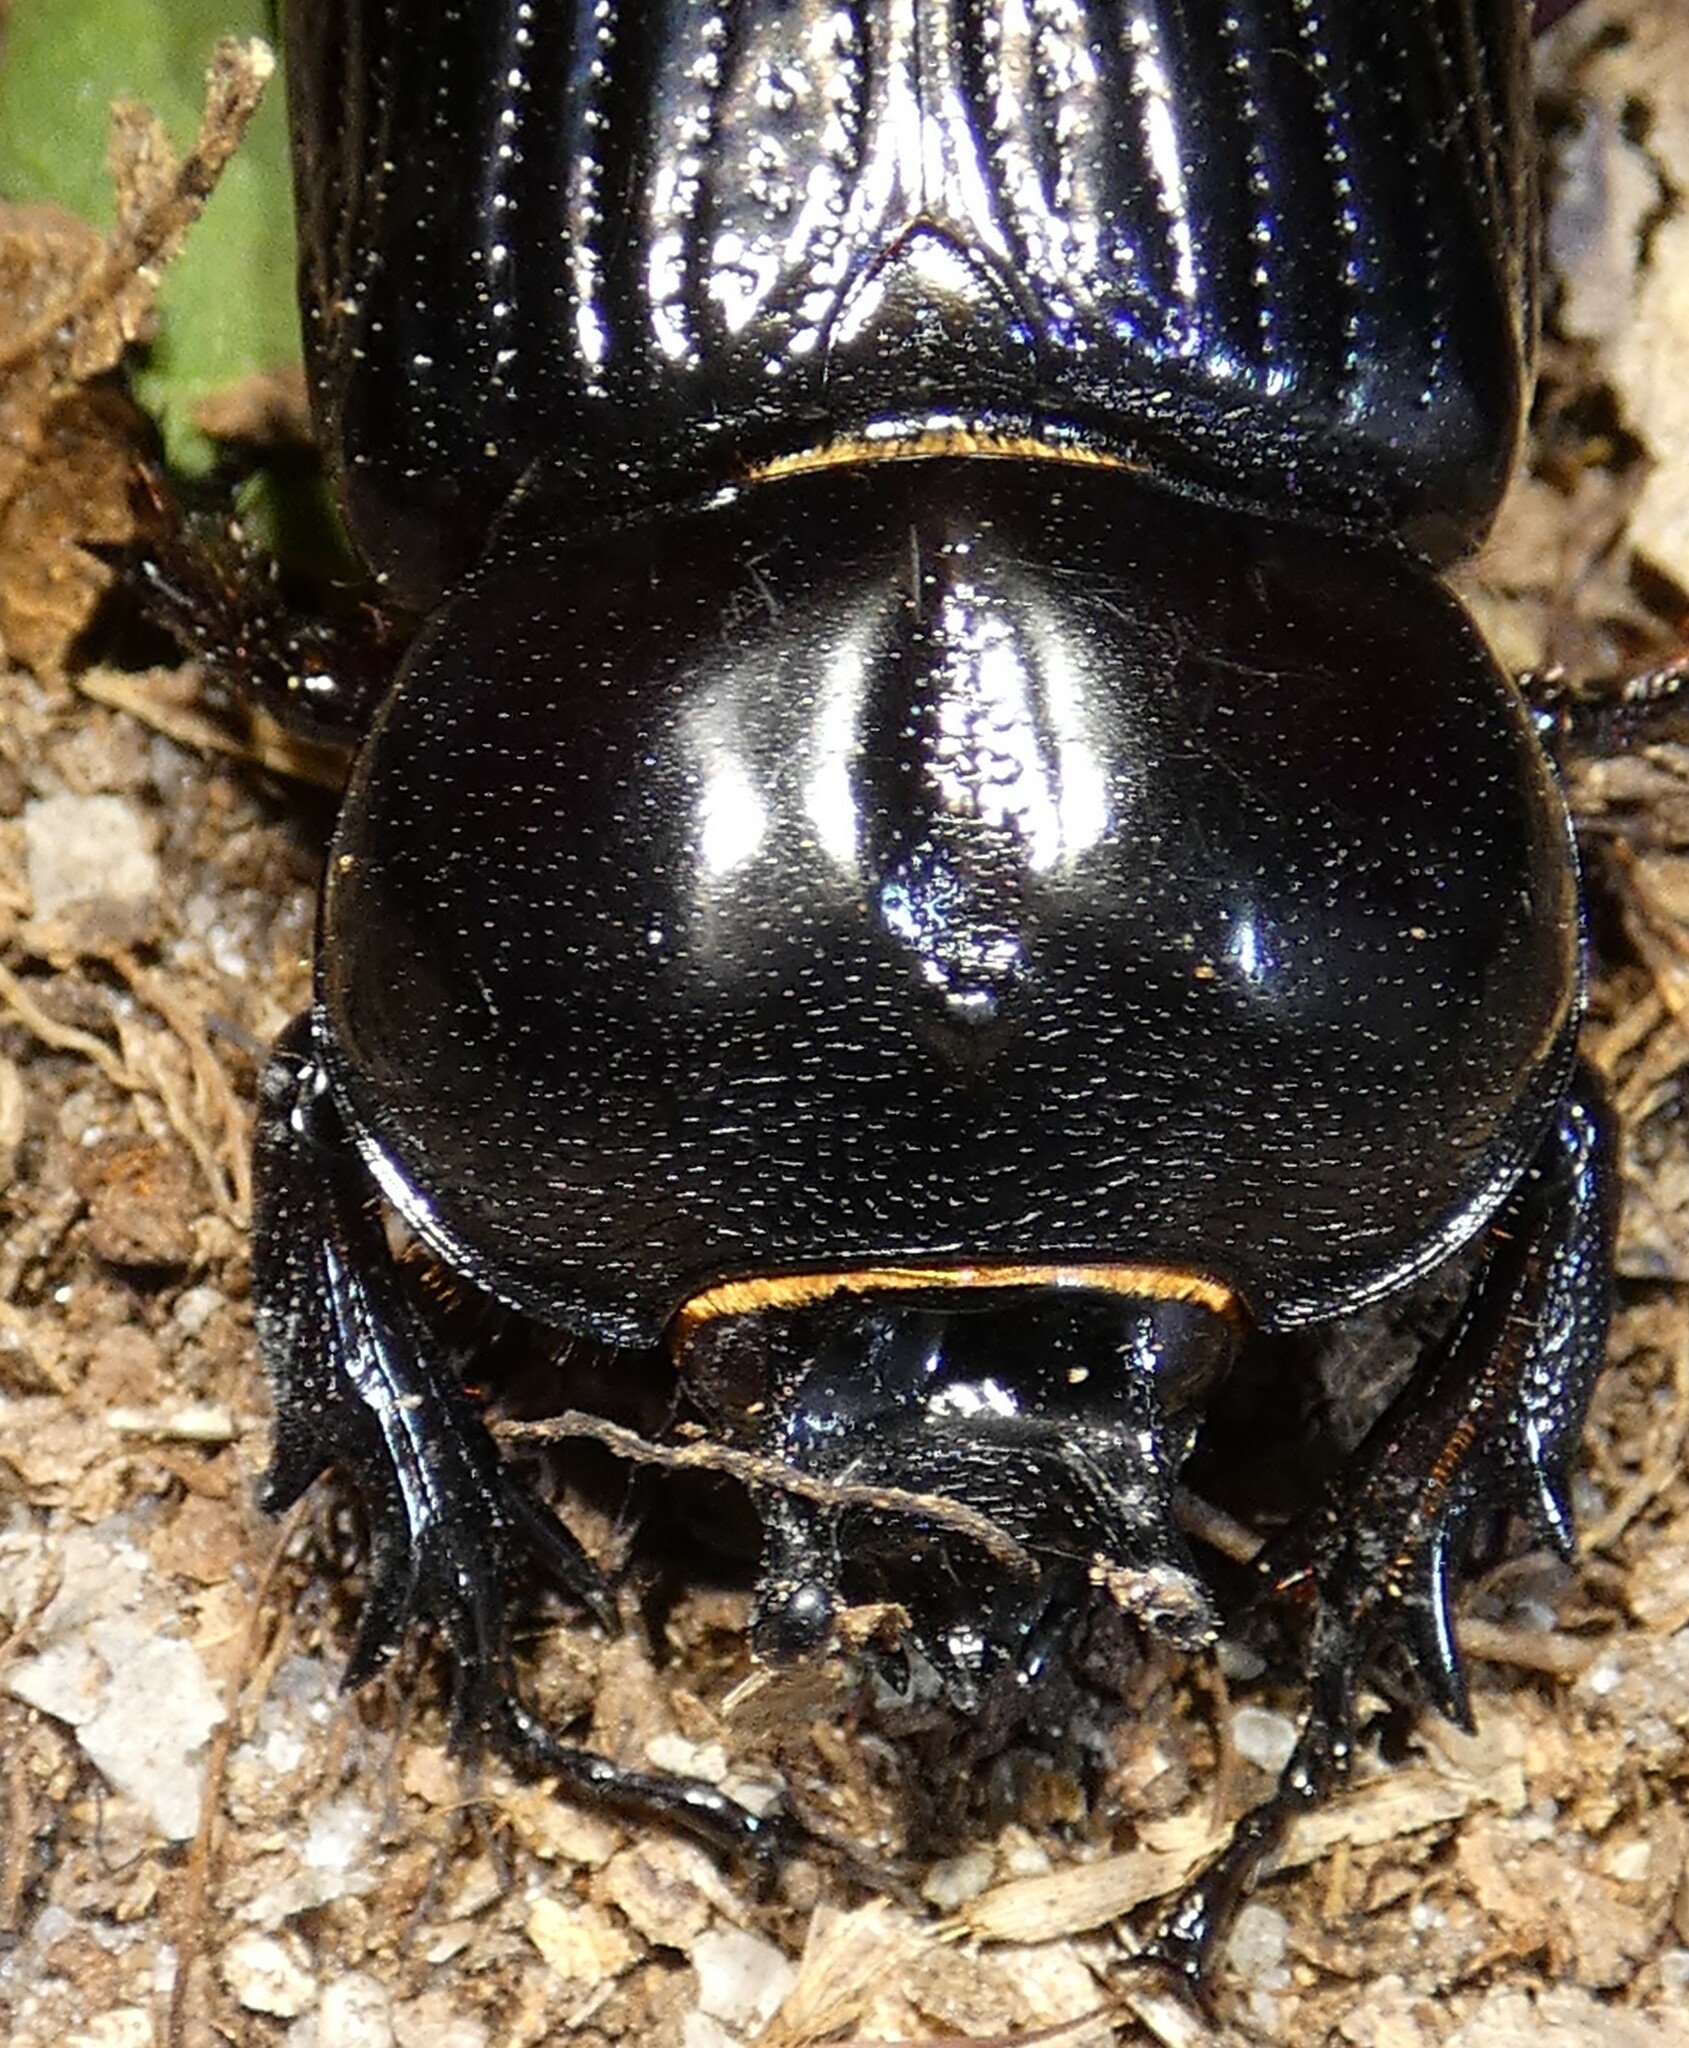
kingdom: Animalia
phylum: Arthropoda
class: Insecta
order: Coleoptera
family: Scarabaeidae
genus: Phileurus
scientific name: Phileurus truncatus
